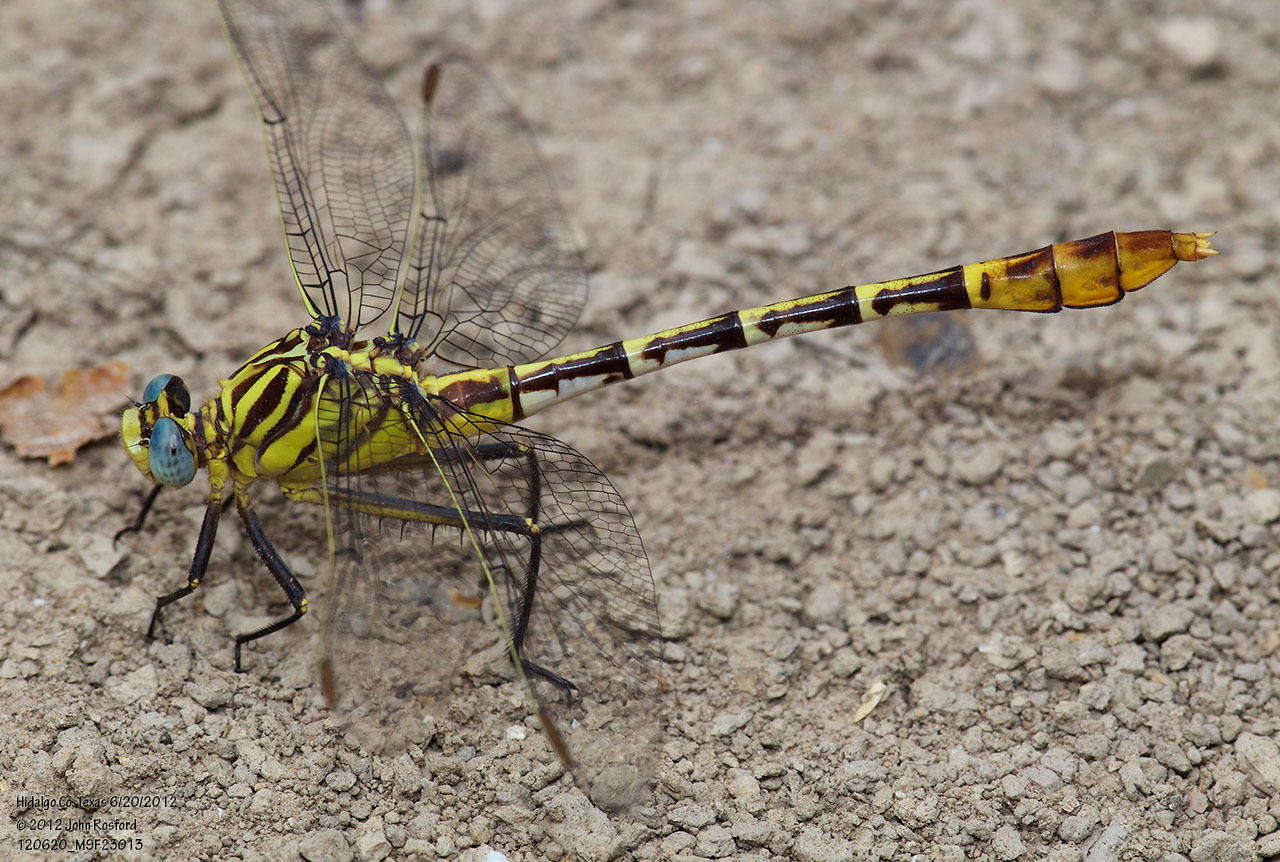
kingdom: Animalia
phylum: Arthropoda
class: Insecta
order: Odonata
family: Gomphidae
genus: Dromogomphus
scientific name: Dromogomphus spoliatus
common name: Flag-tailed spinyleg
